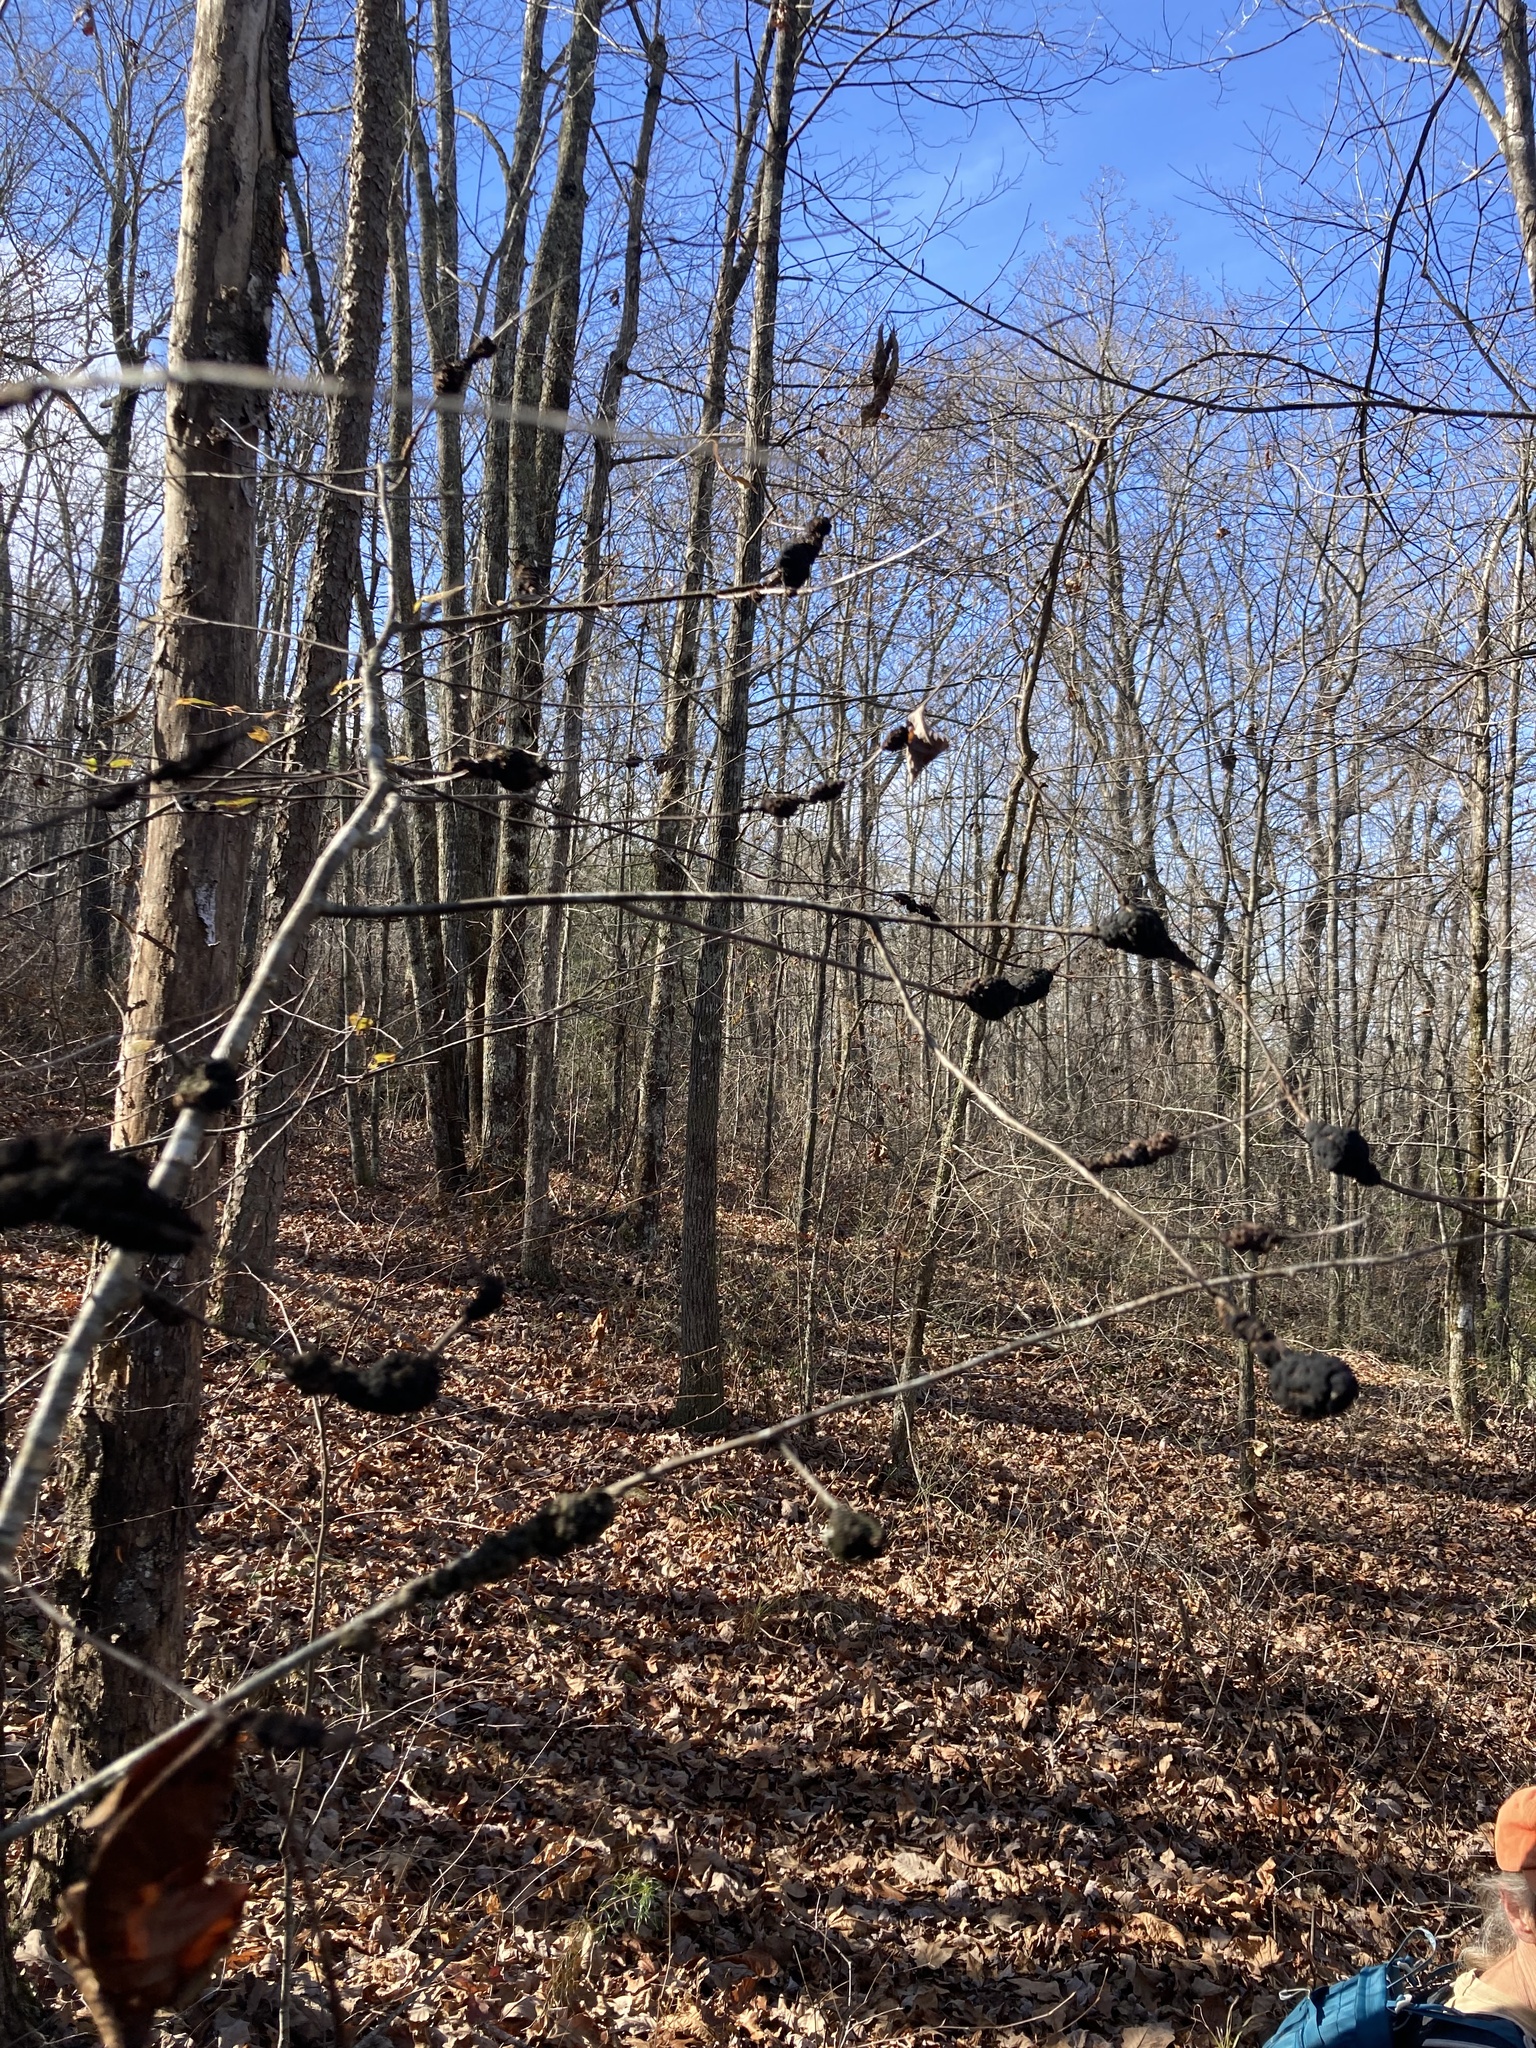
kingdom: Fungi
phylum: Ascomycota
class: Dothideomycetes
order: Venturiales
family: Venturiaceae
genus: Apiosporina
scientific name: Apiosporina morbosa
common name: Black knot
